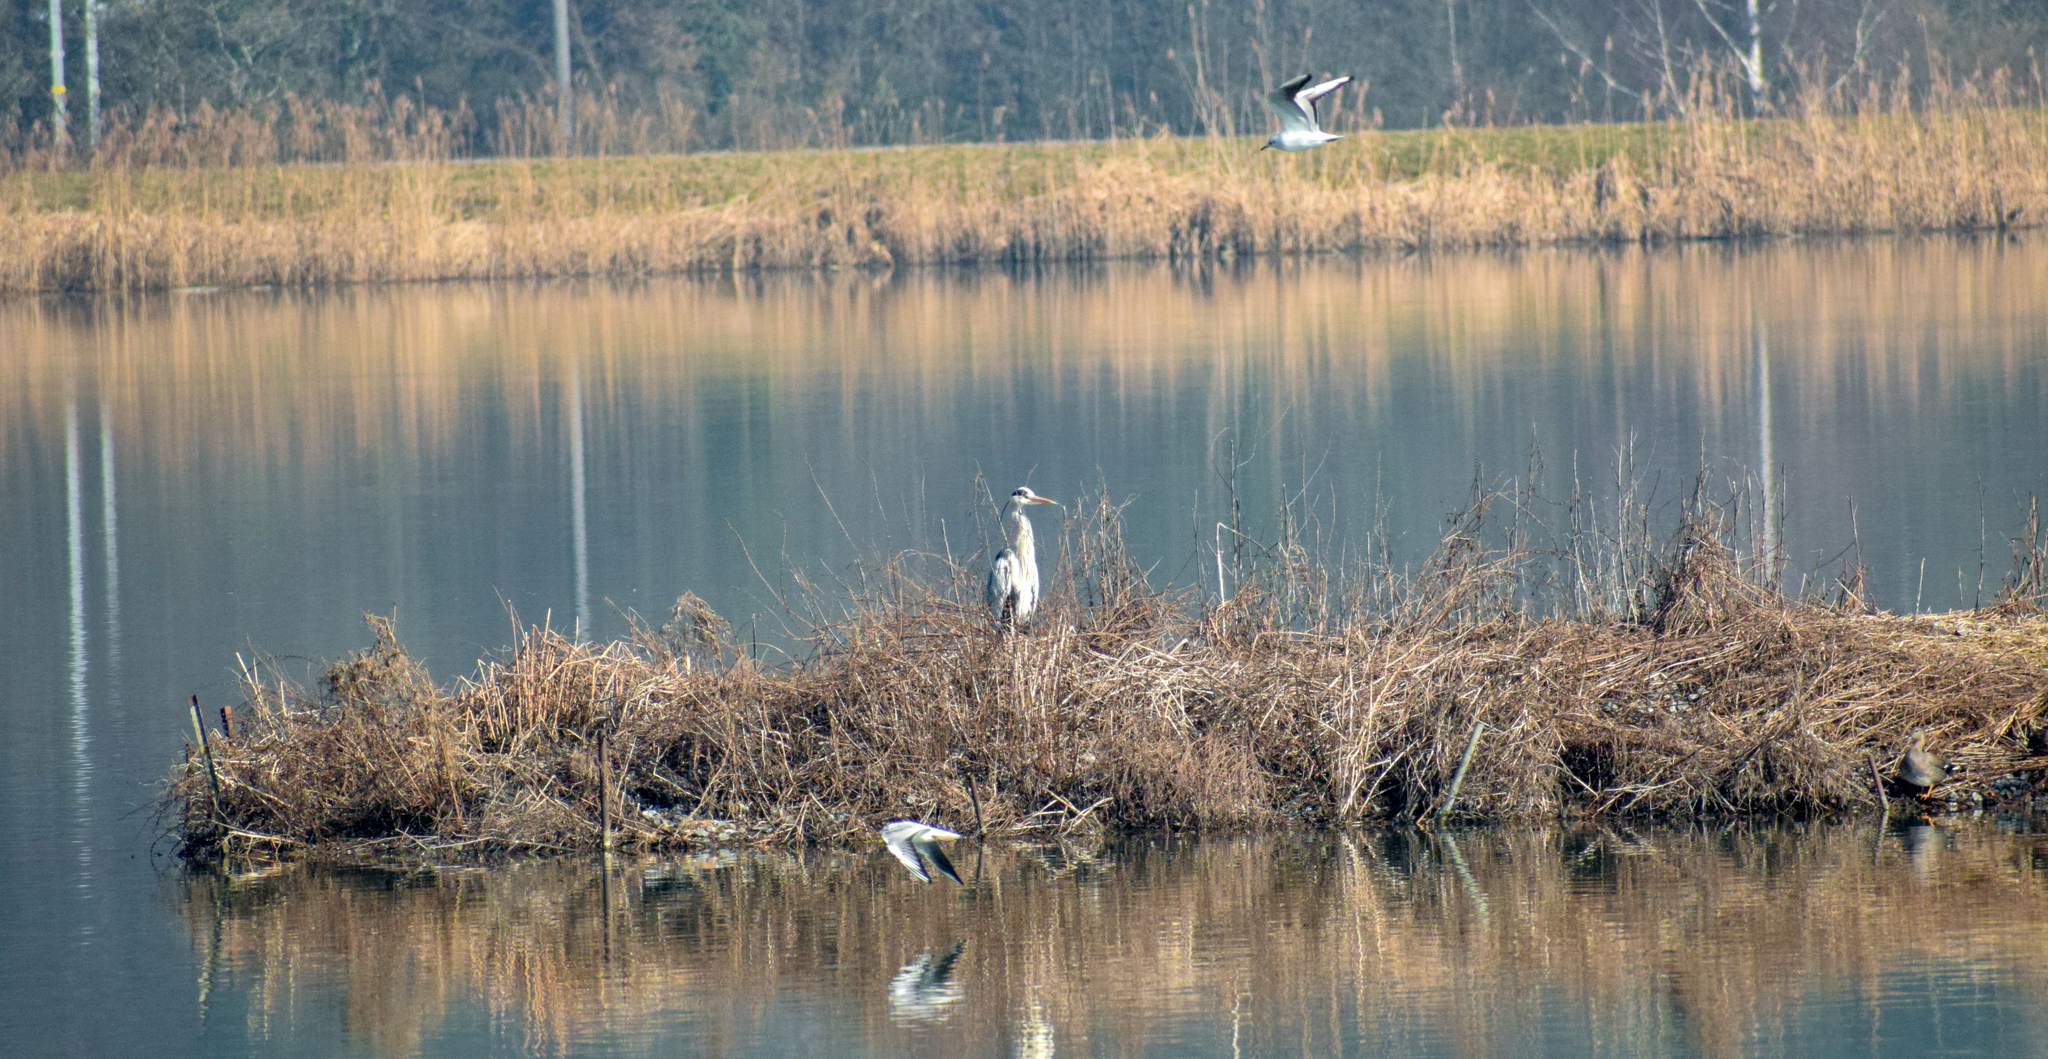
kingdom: Animalia
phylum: Chordata
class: Aves
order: Pelecaniformes
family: Ardeidae
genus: Ardea
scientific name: Ardea cinerea
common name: Grey heron
